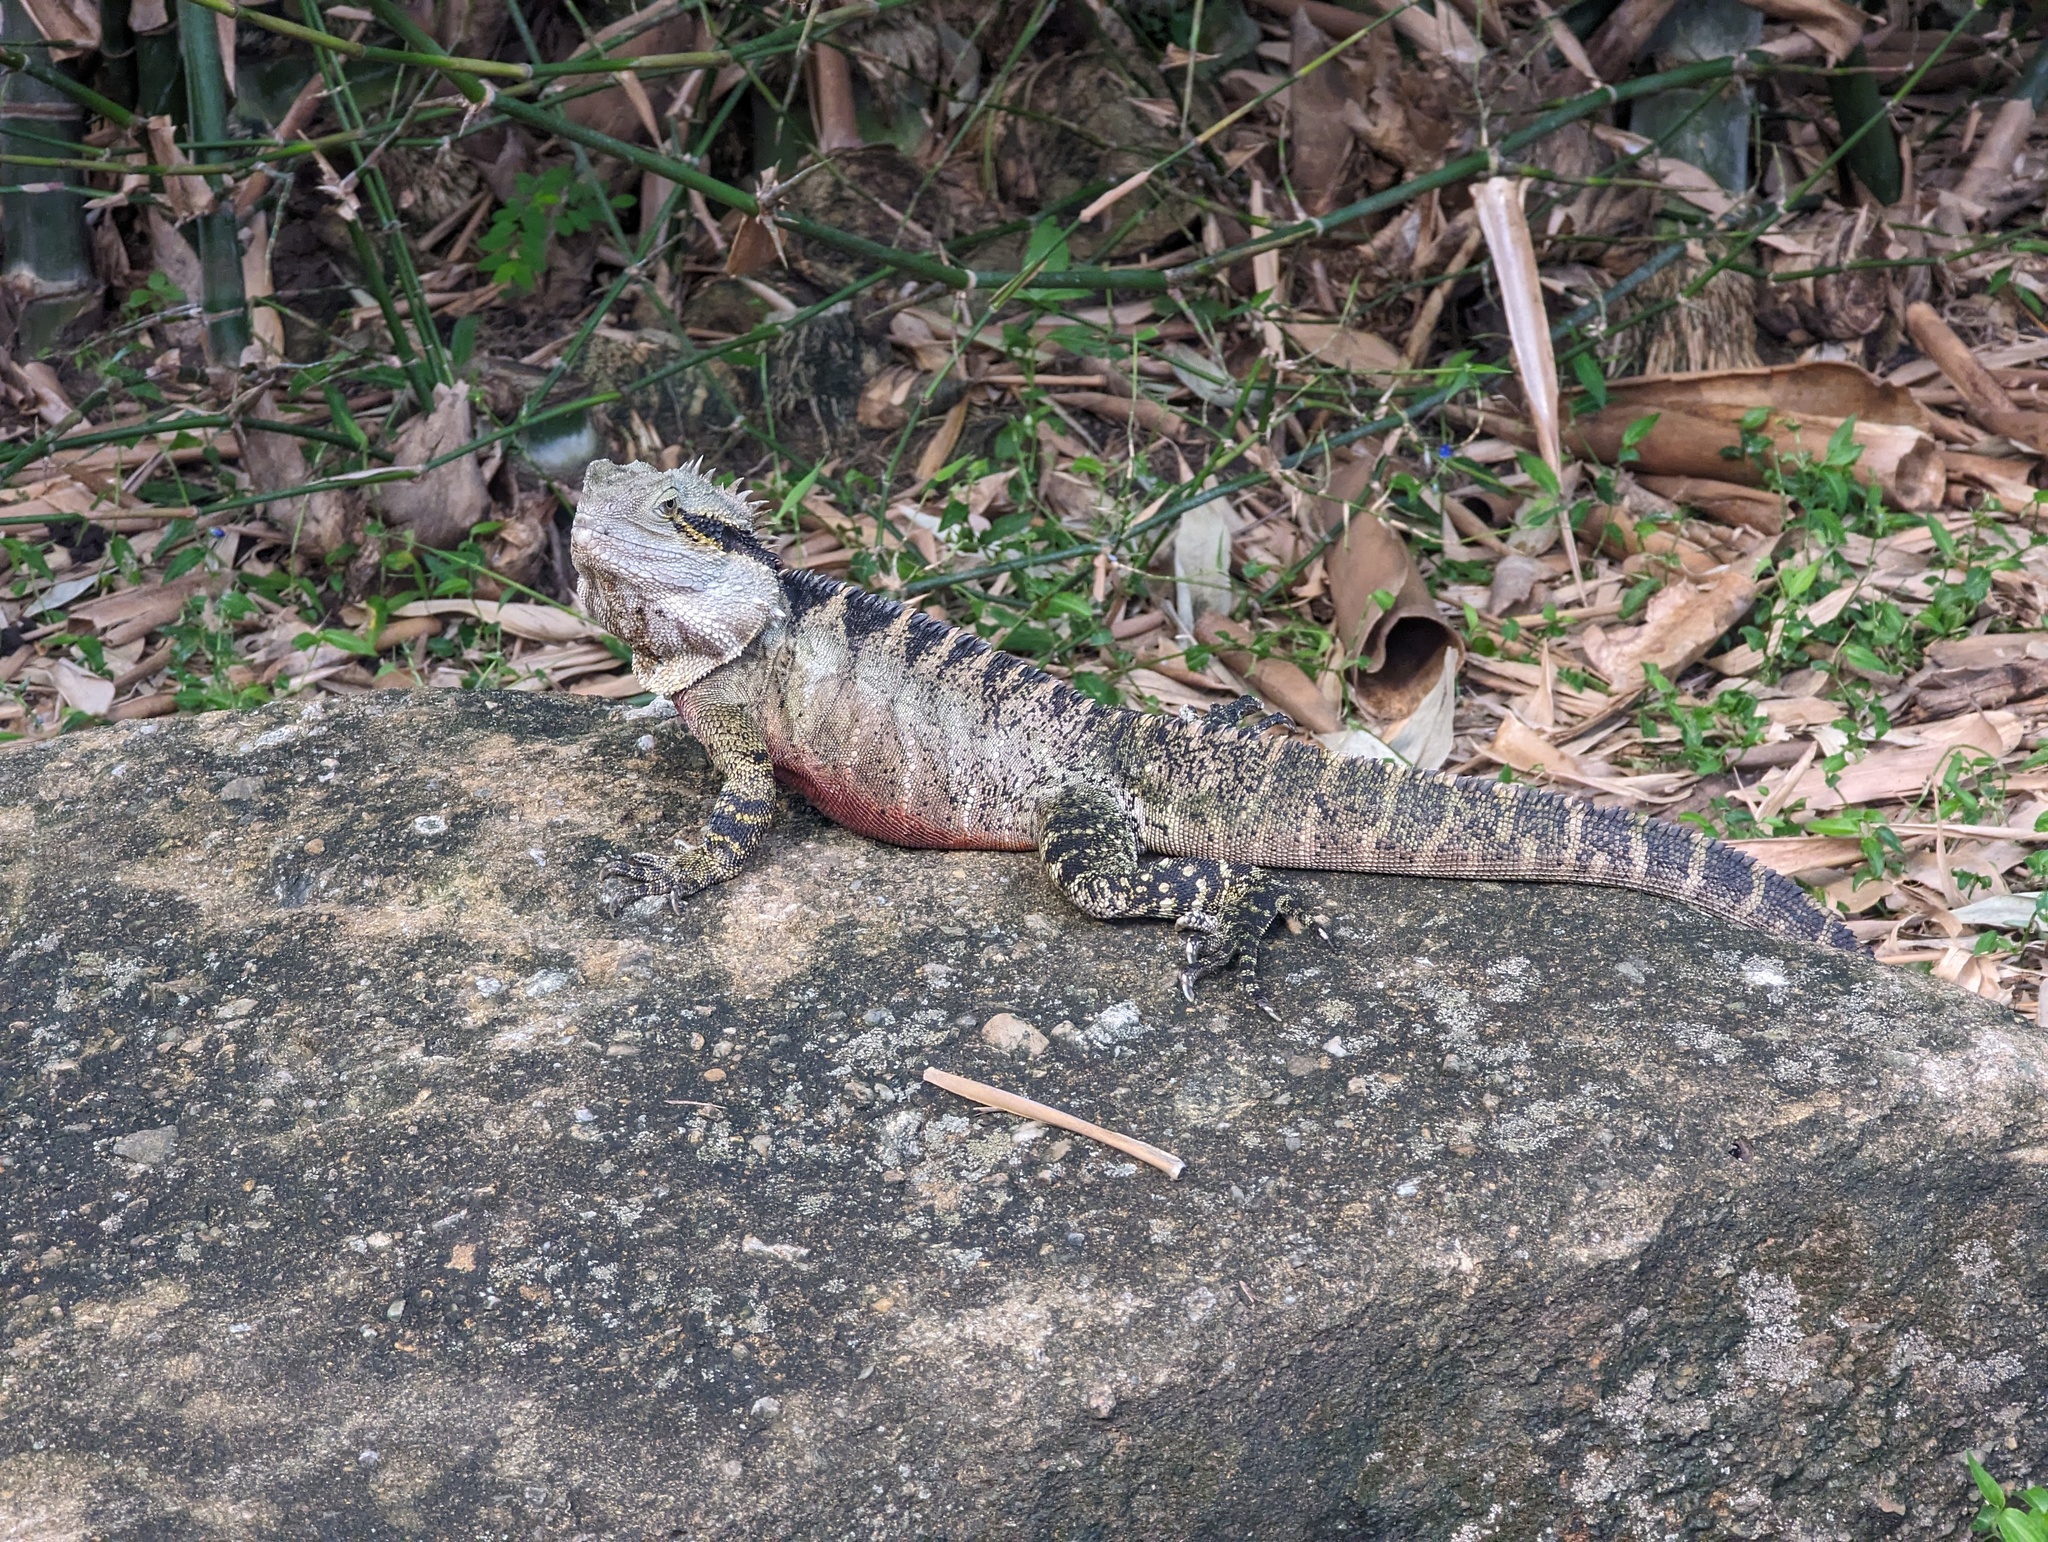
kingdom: Animalia
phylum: Chordata
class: Squamata
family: Agamidae
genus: Intellagama
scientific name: Intellagama lesueurii
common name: Eastern water dragon
